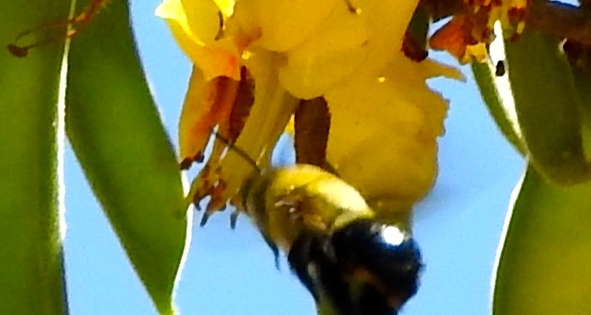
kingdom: Animalia
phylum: Arthropoda
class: Insecta
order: Hymenoptera
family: Apidae
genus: Centris
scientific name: Centris
